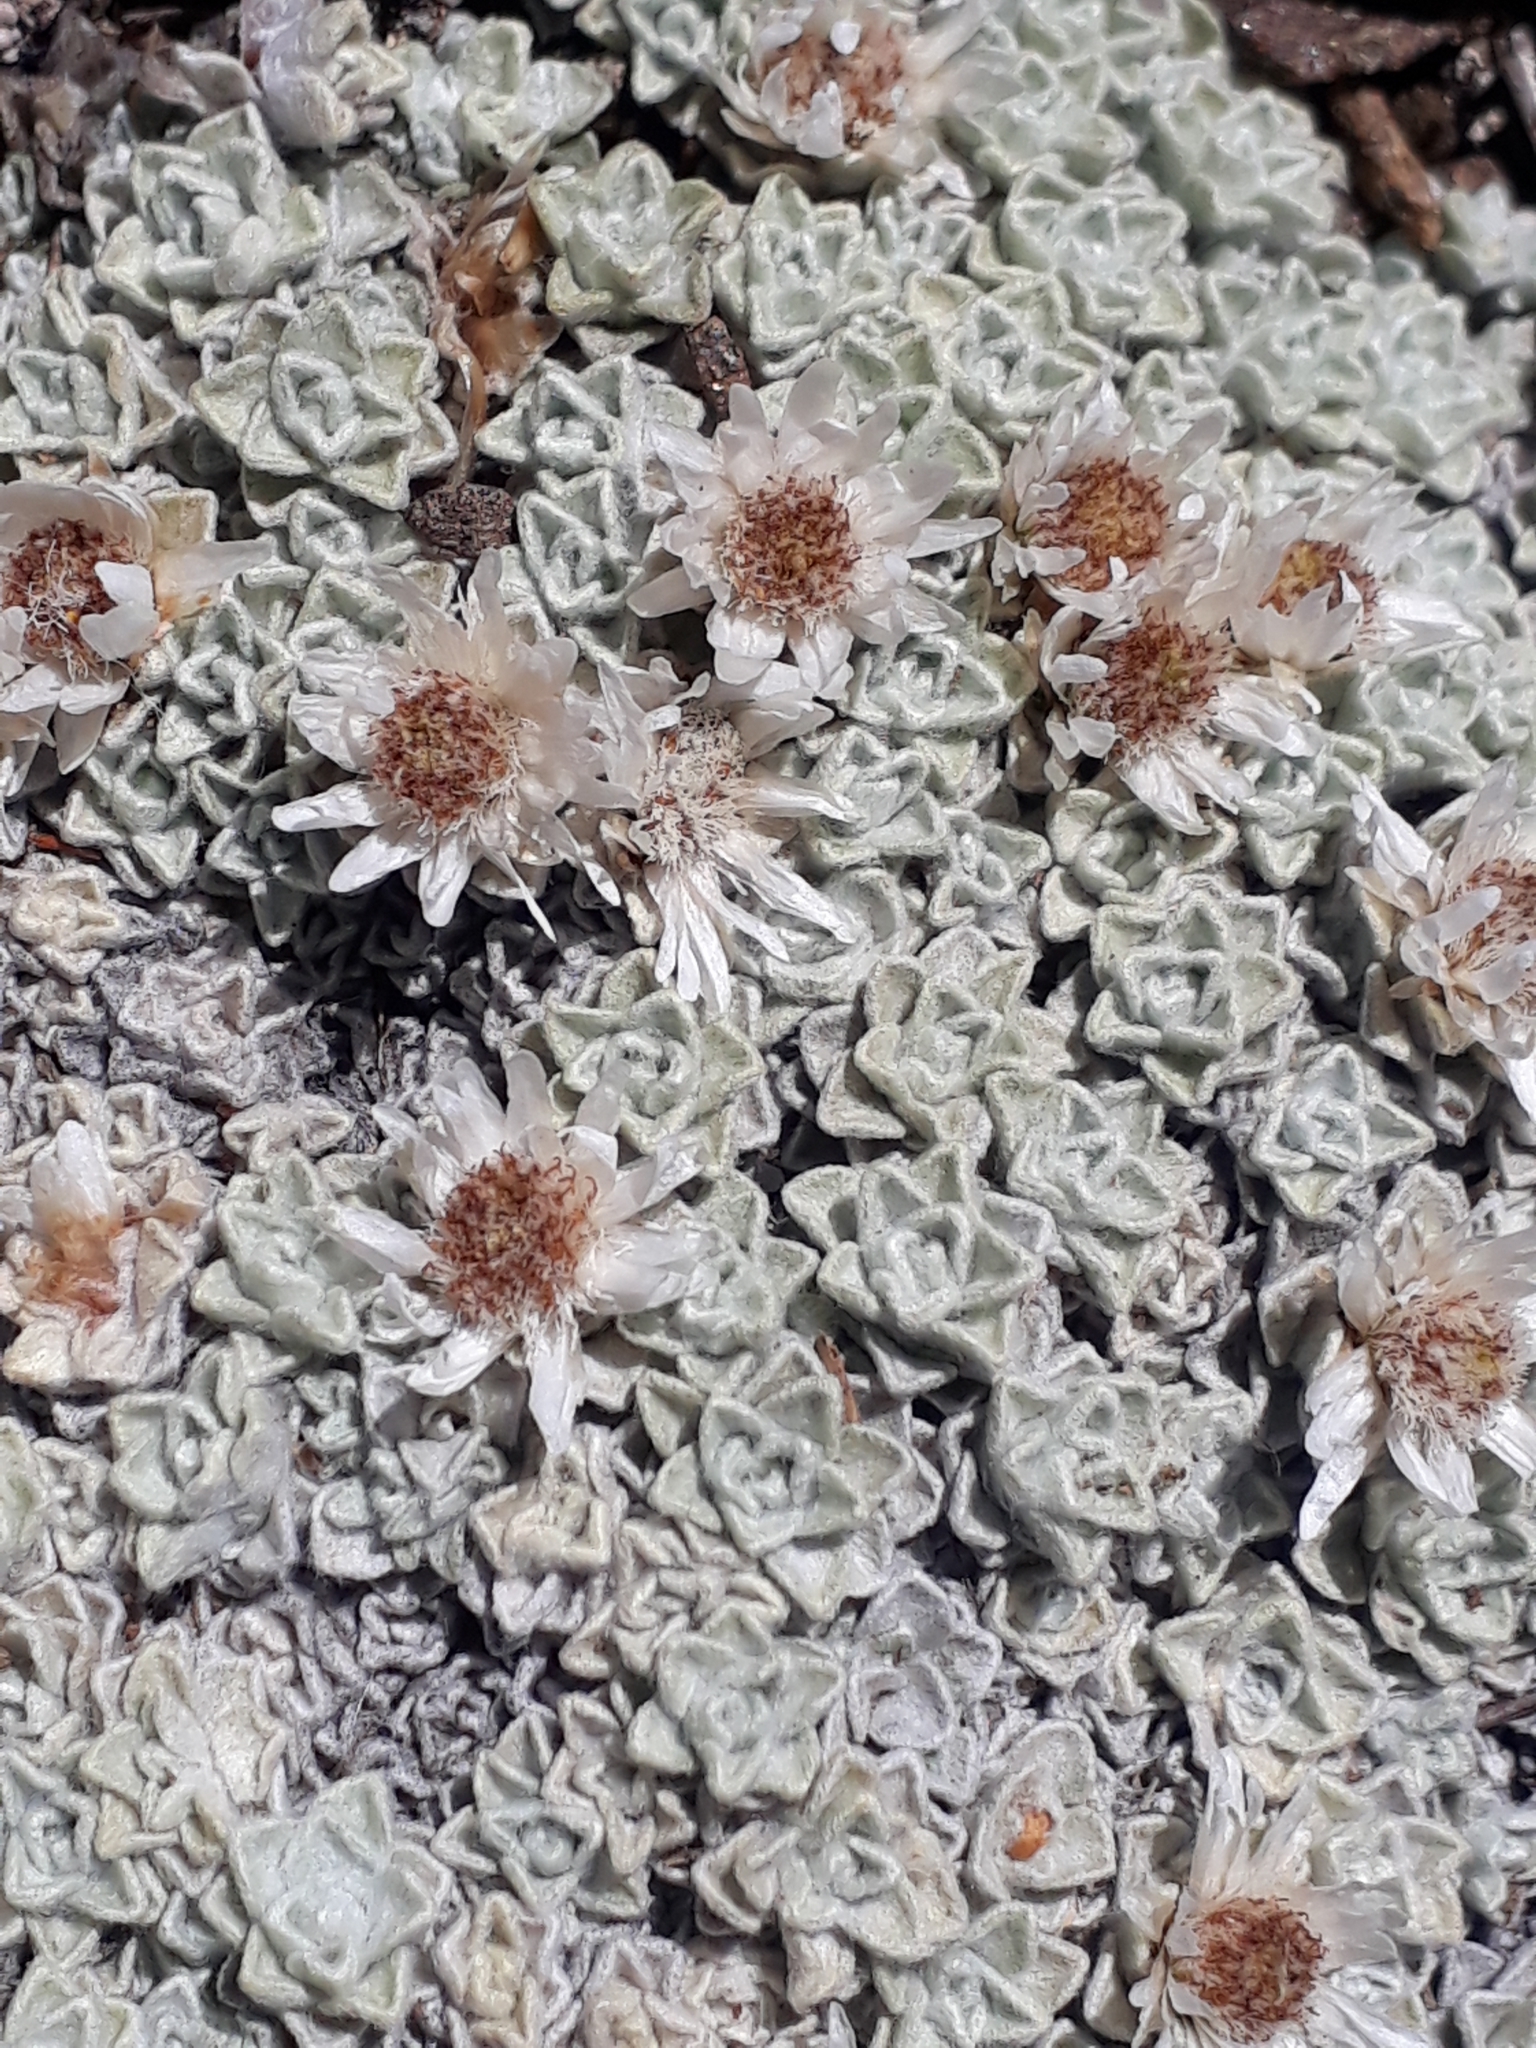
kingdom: Plantae
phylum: Tracheophyta
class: Magnoliopsida
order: Asterales
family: Asteraceae
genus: Raoulia
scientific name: Raoulia youngii
